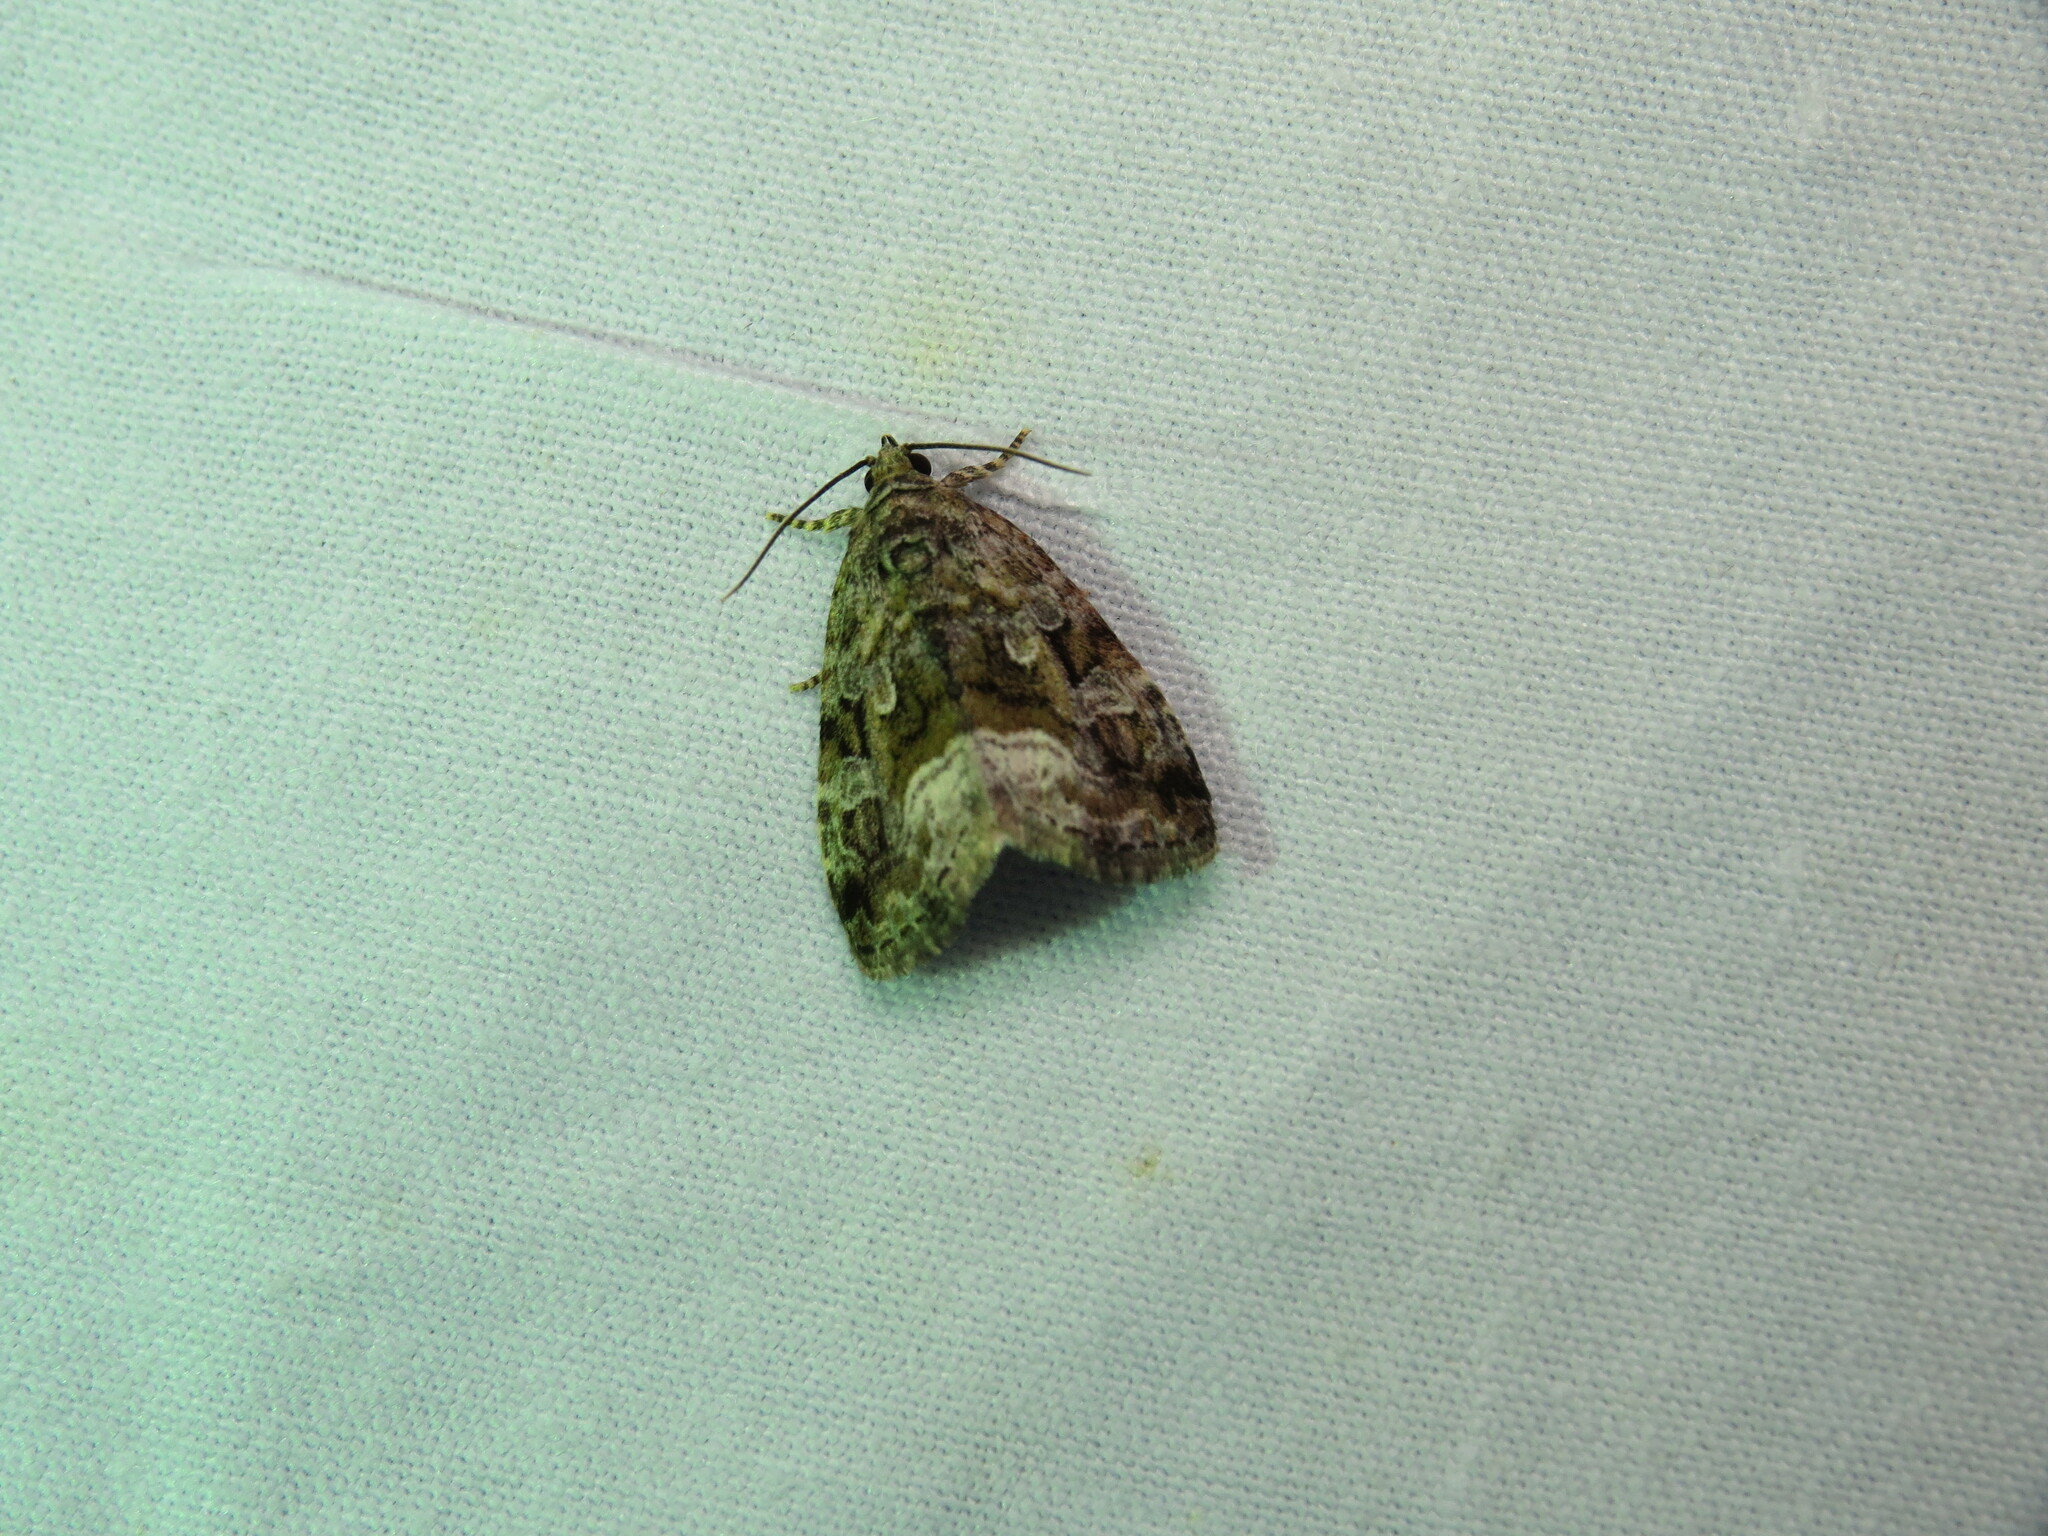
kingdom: Animalia
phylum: Arthropoda
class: Insecta
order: Lepidoptera
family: Noctuidae
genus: Protodeltote
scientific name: Protodeltote muscosula
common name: Large mossy glyph
